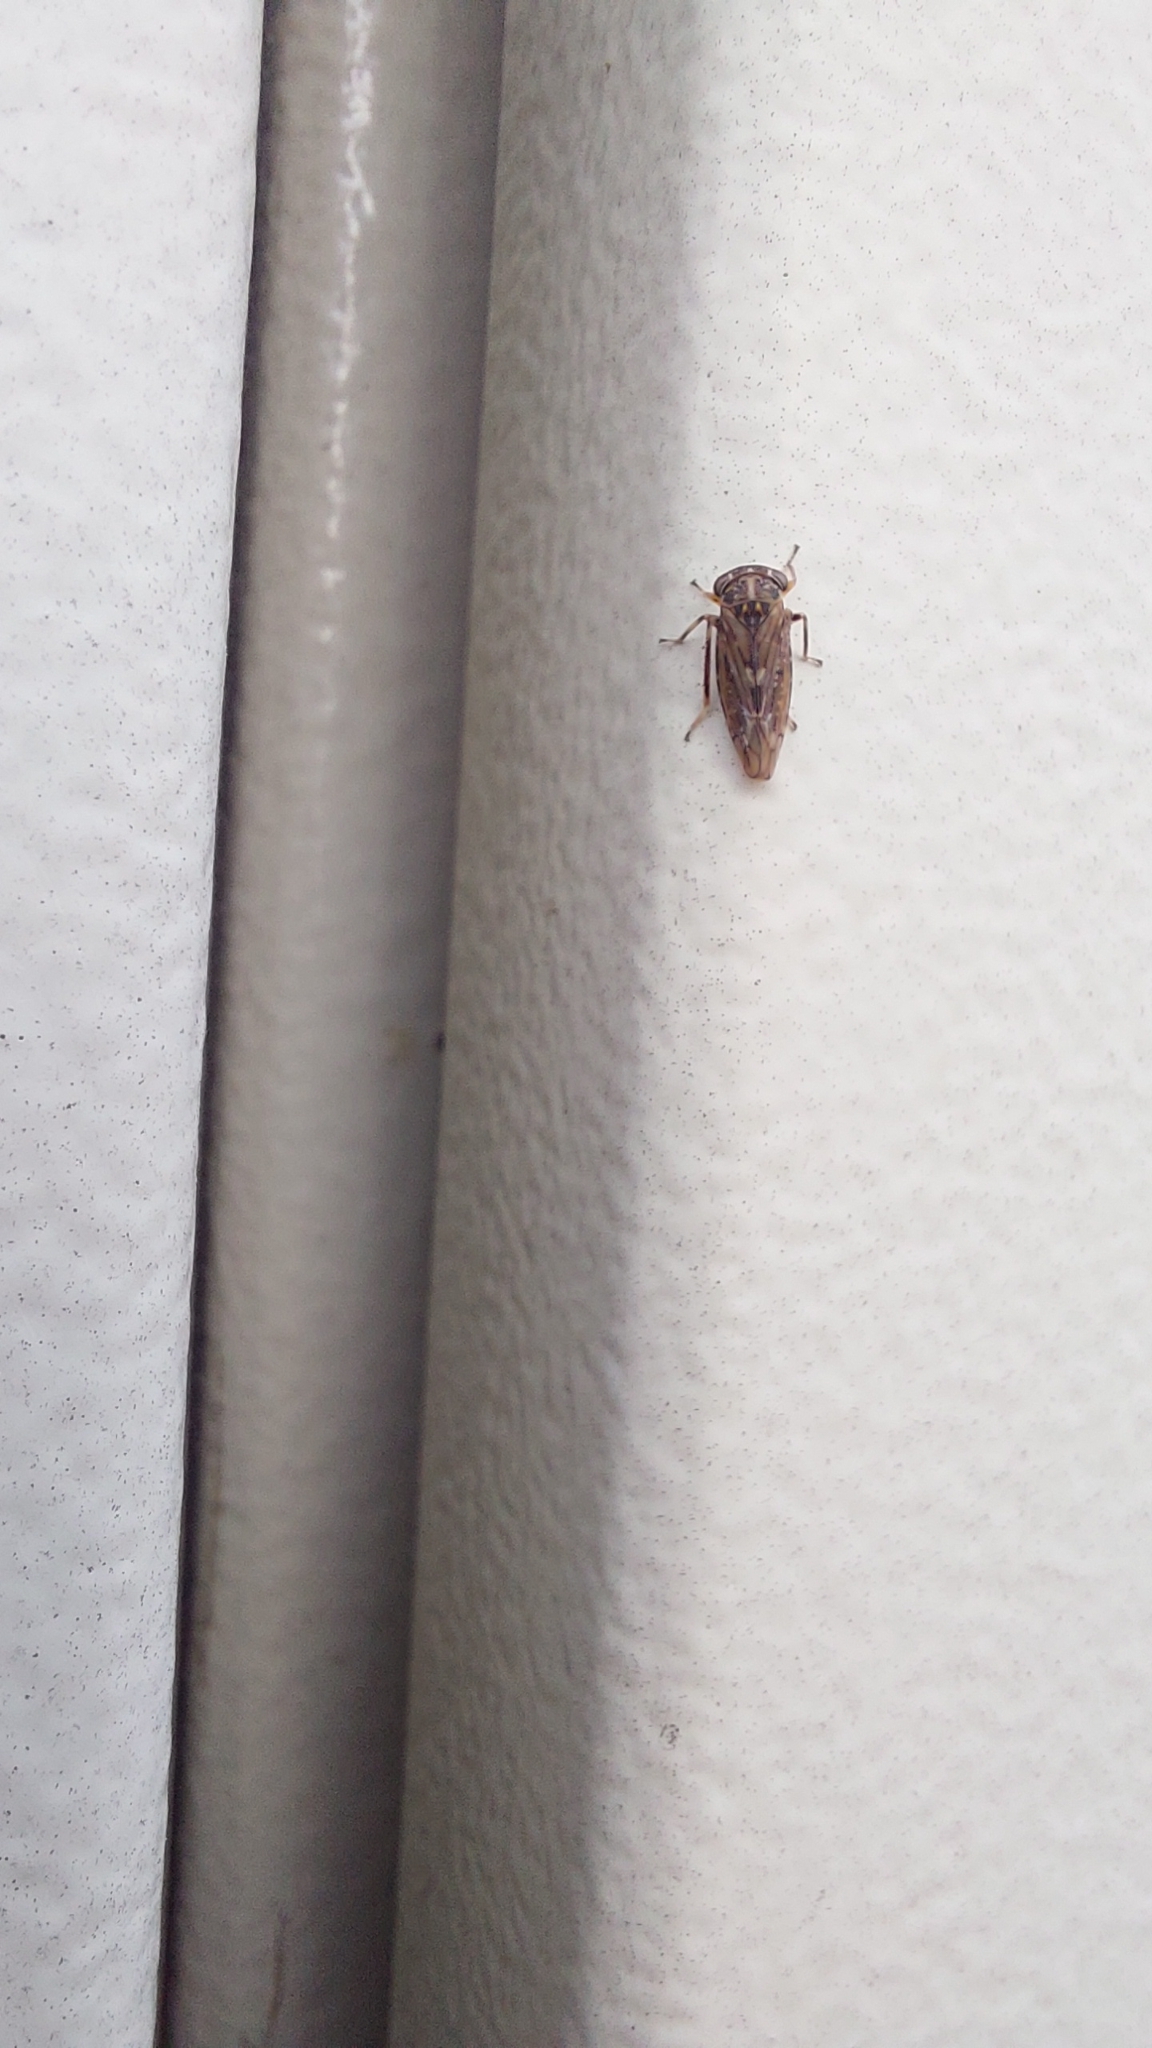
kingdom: Animalia
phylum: Arthropoda
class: Insecta
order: Hemiptera
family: Cicadellidae
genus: Idiocerus
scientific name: Idiocerus herrichii
